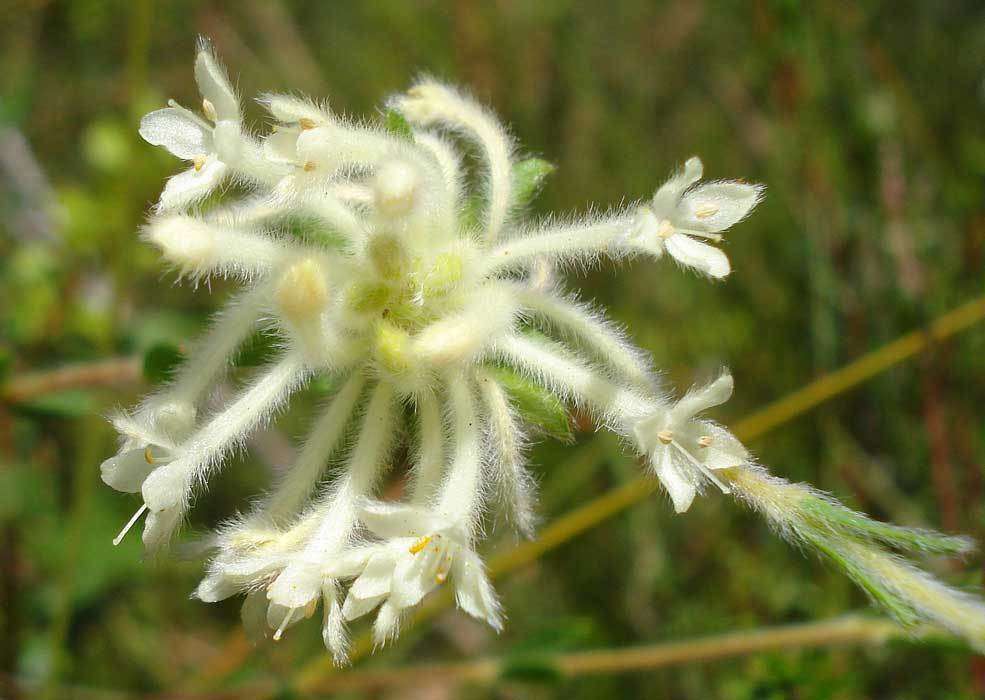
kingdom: Plantae
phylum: Tracheophyta
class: Magnoliopsida
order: Malvales
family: Thymelaeaceae
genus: Pimelea
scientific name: Pimelea octophylla
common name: Woolly riceflower
